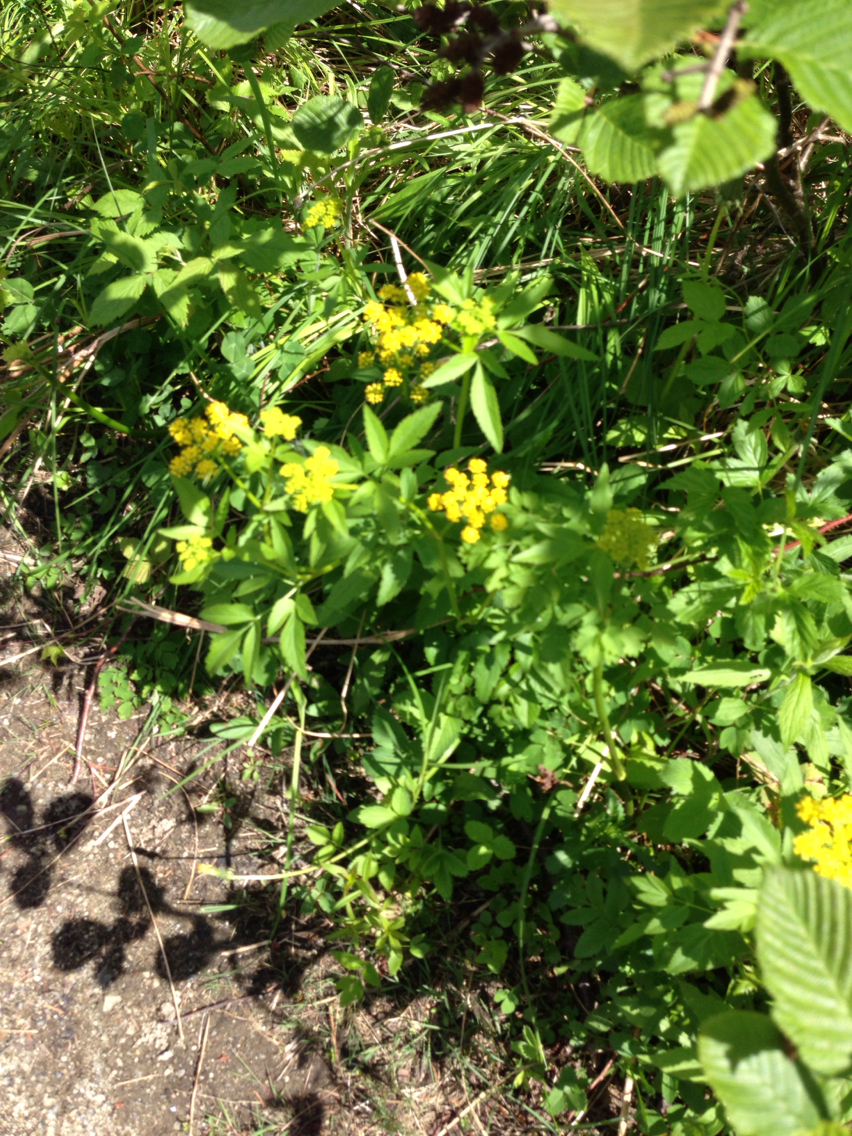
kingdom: Plantae
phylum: Tracheophyta
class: Magnoliopsida
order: Apiales
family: Apiaceae
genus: Zizia
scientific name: Zizia aurea
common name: Golden alexanders
